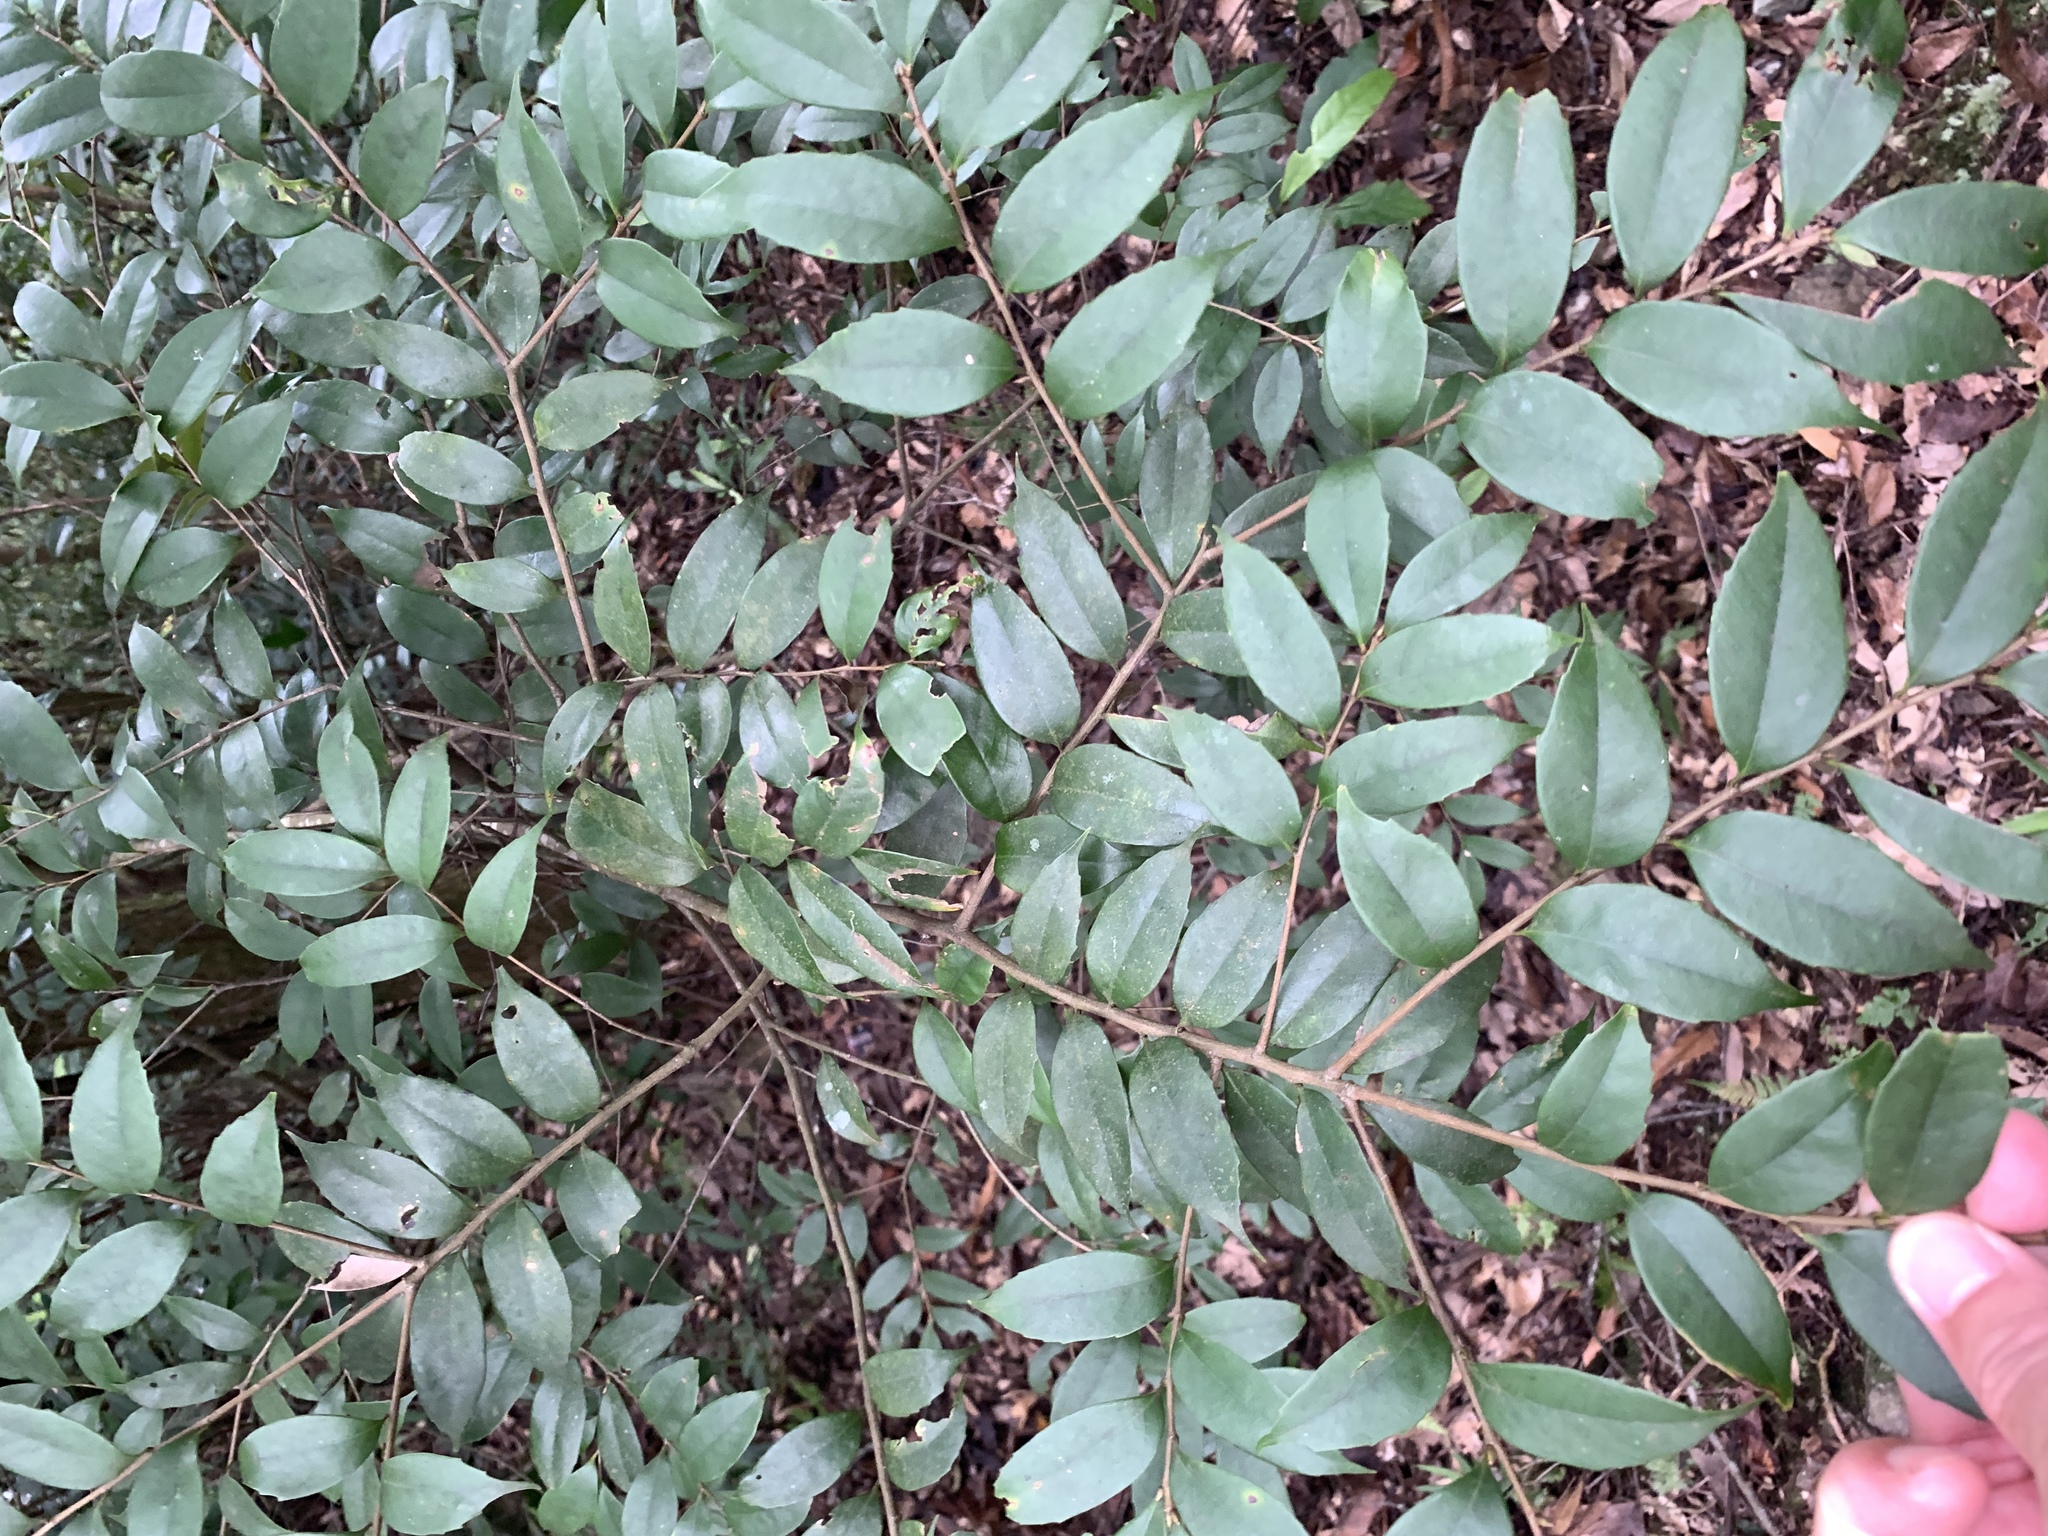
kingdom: Plantae
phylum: Tracheophyta
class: Magnoliopsida
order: Fagales
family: Fagaceae
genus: Lithocarpus
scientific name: Lithocarpus uraianus
